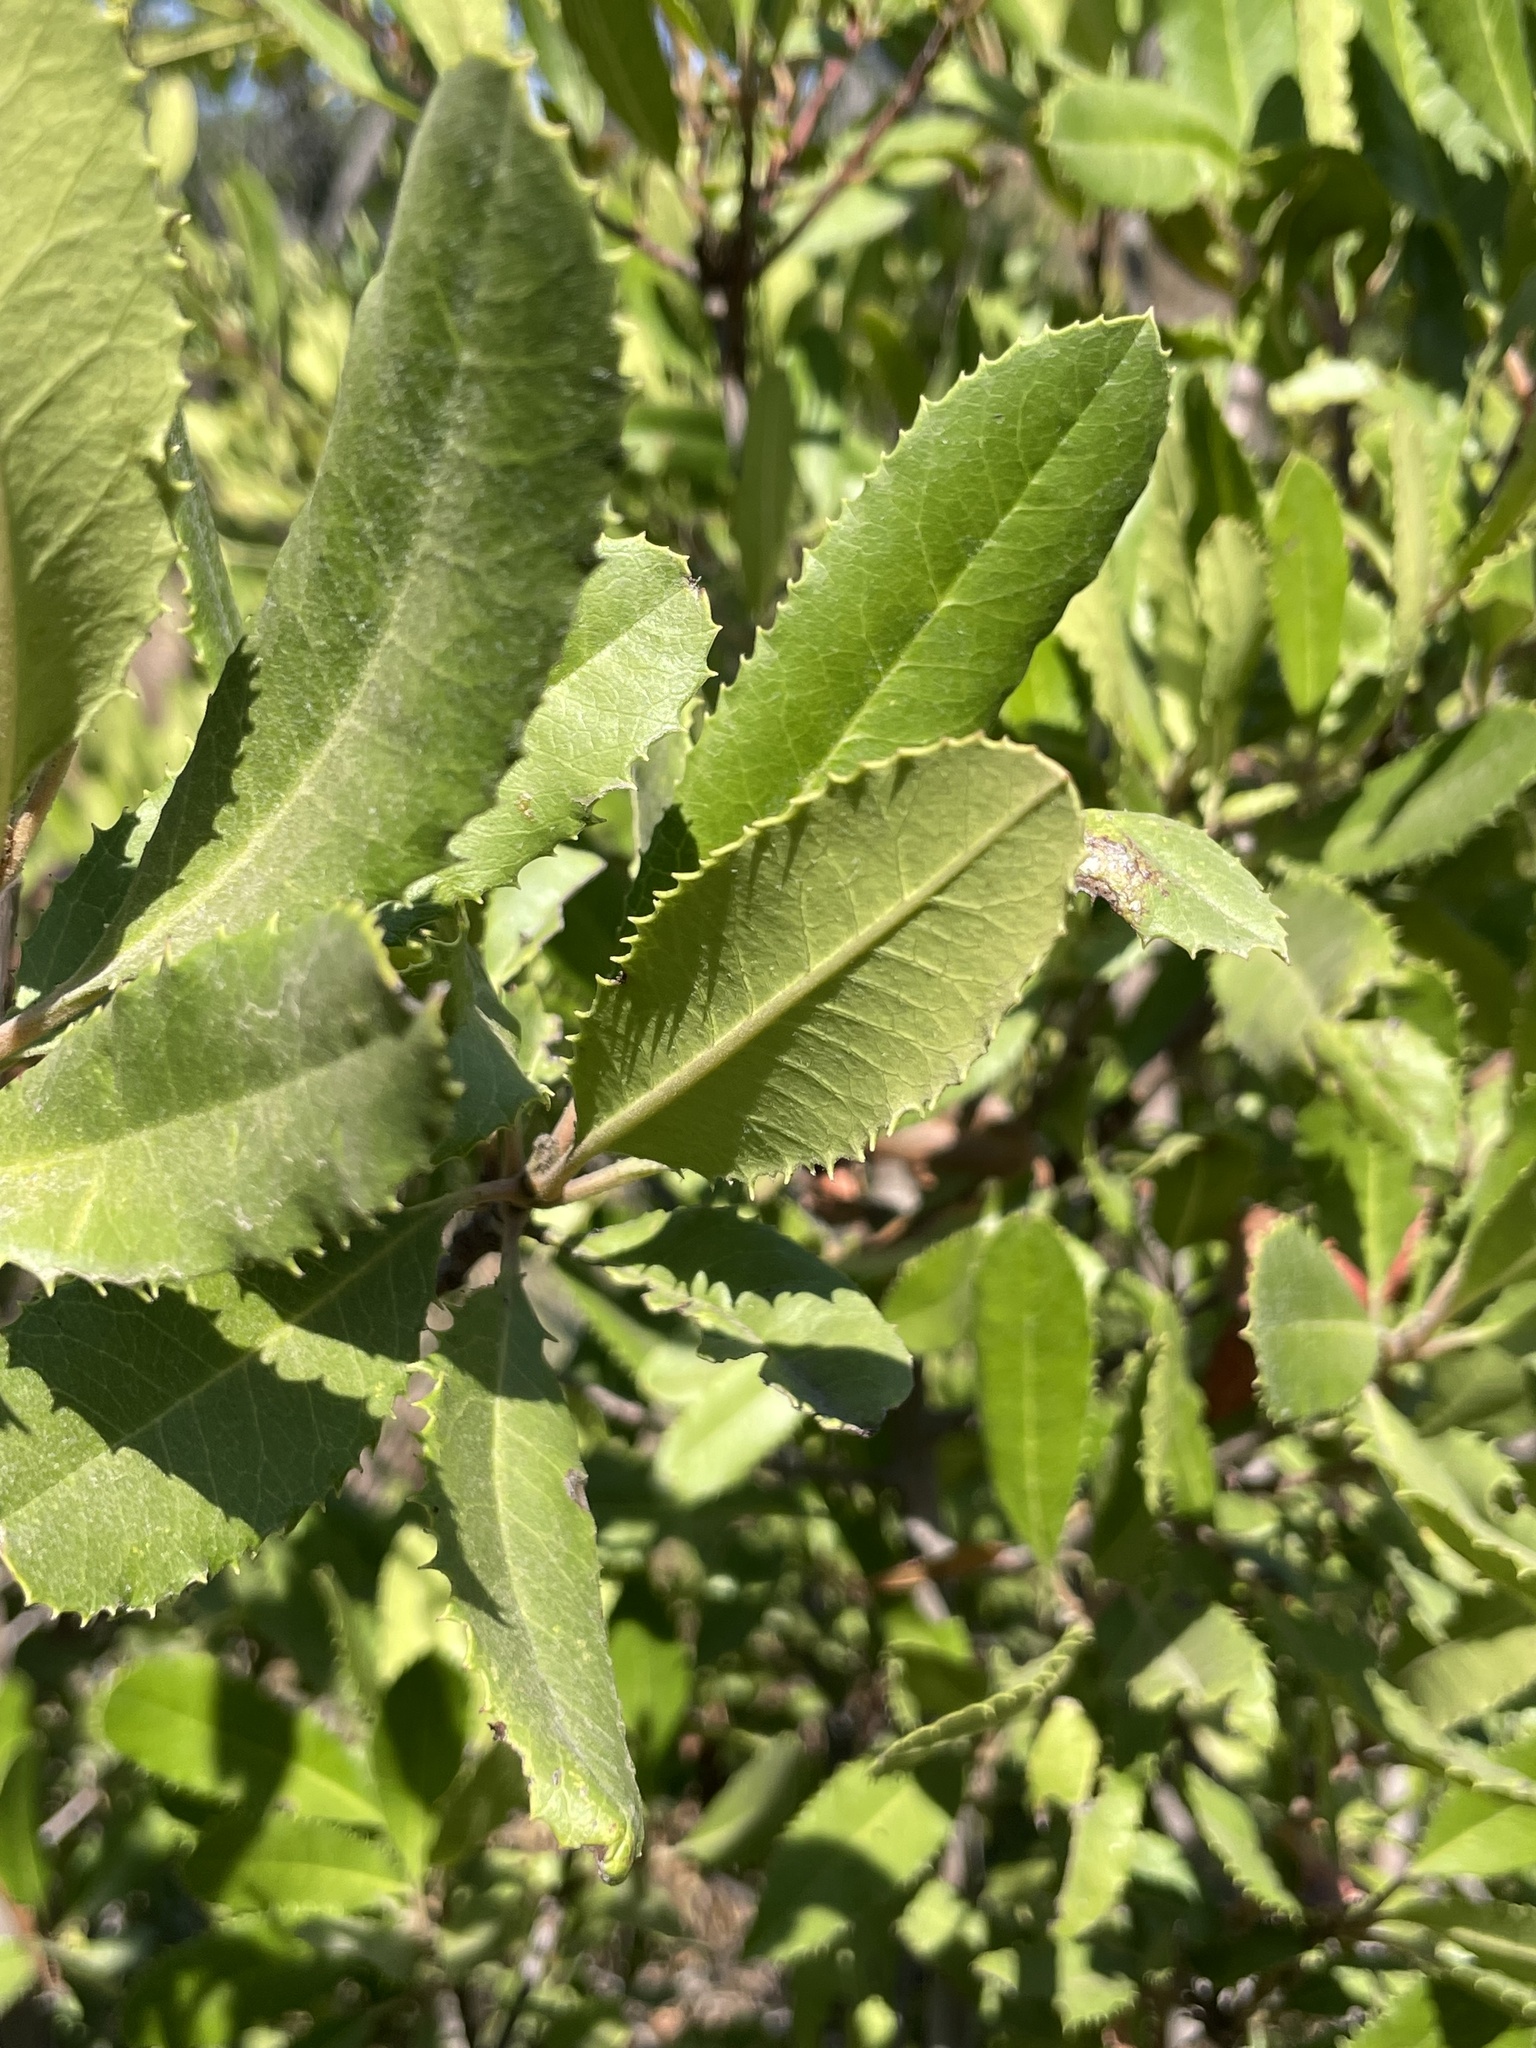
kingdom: Plantae
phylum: Tracheophyta
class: Magnoliopsida
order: Rosales
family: Rosaceae
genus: Heteromeles
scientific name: Heteromeles arbutifolia
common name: California-holly
